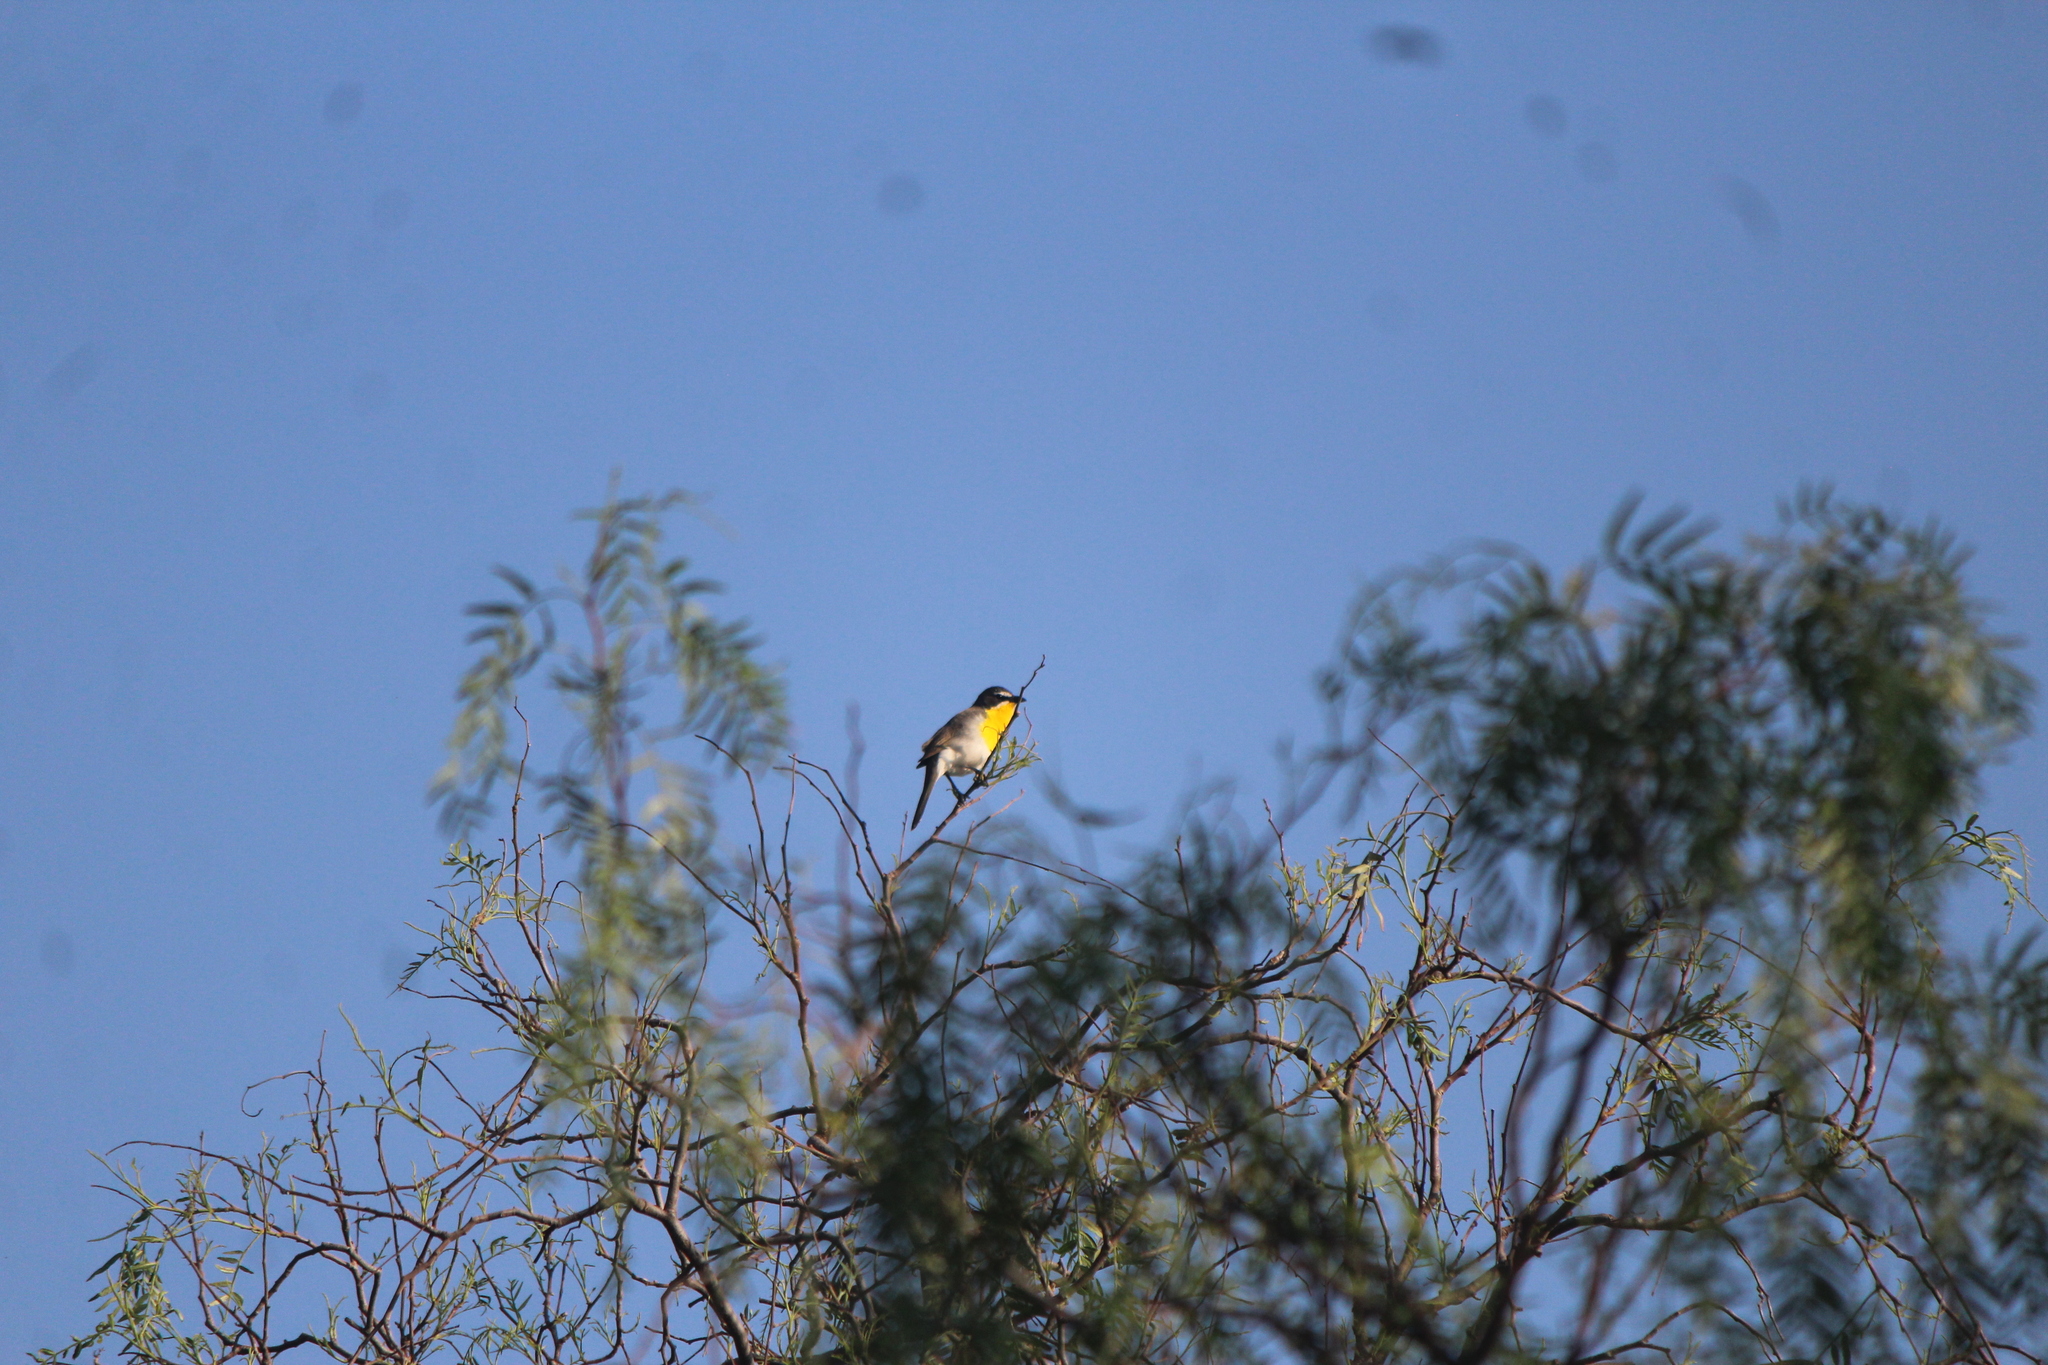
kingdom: Animalia
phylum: Chordata
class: Aves
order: Passeriformes
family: Parulidae
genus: Icteria
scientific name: Icteria virens
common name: Yellow-breasted chat
